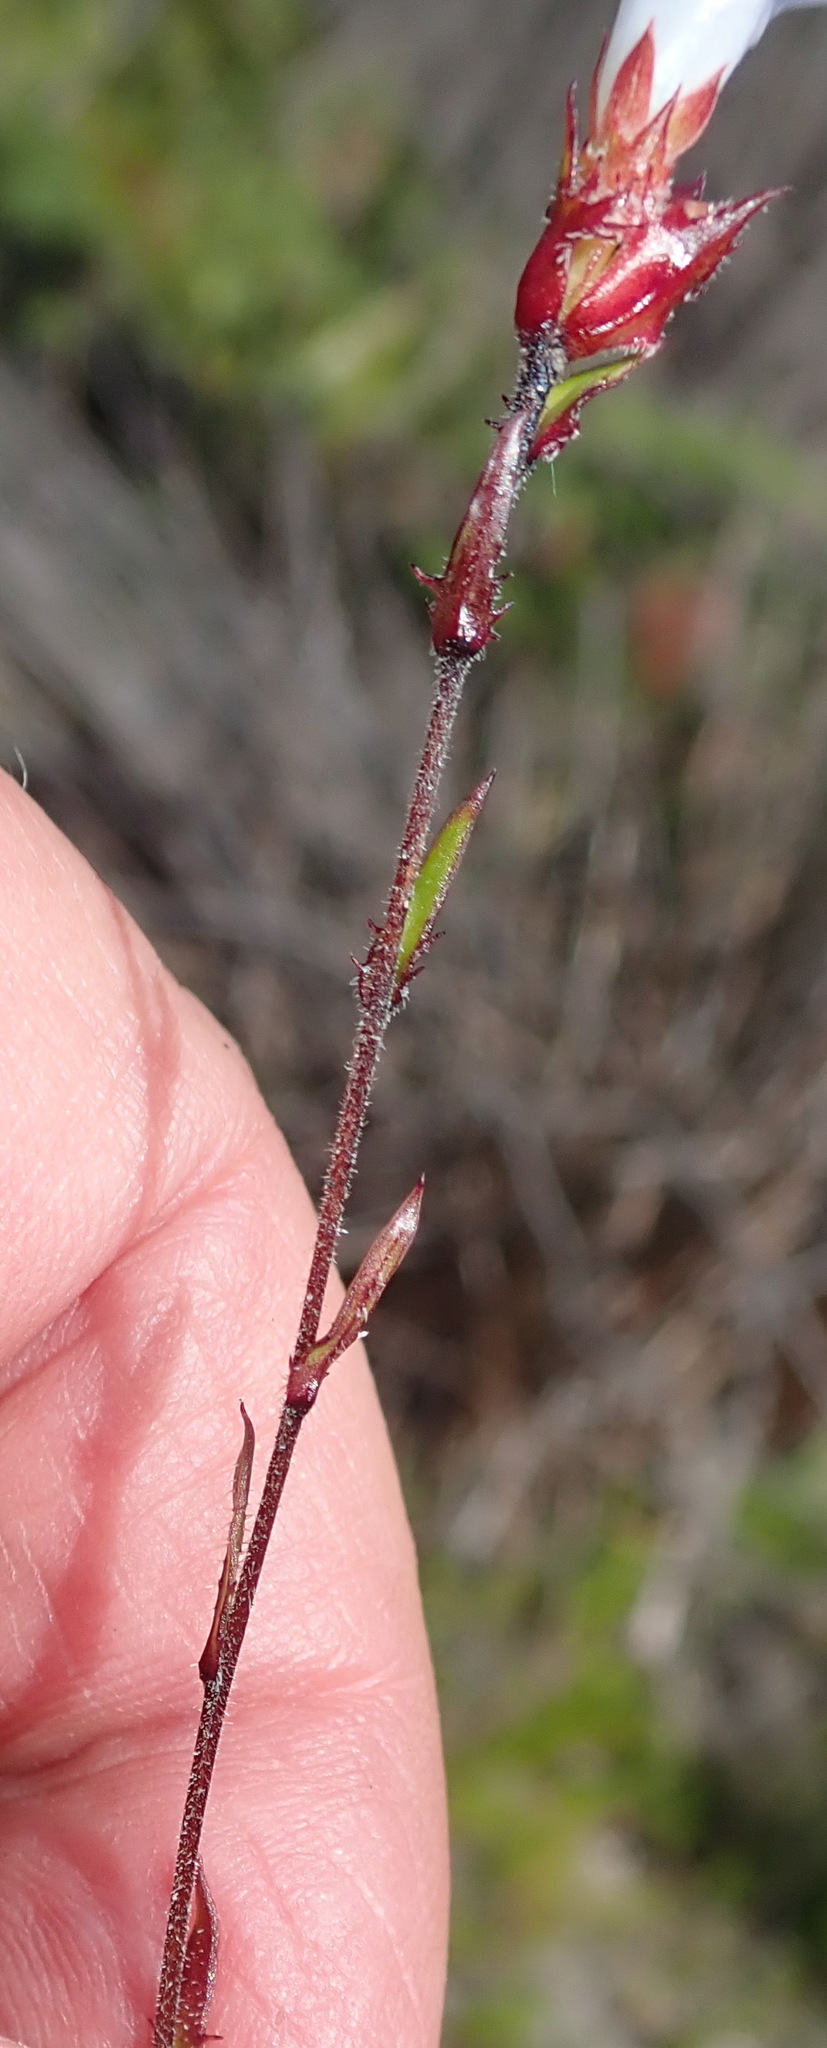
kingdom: Plantae
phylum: Tracheophyta
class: Magnoliopsida
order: Asterales
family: Campanulaceae
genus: Prismatocarpus
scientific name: Prismatocarpus rogersii
